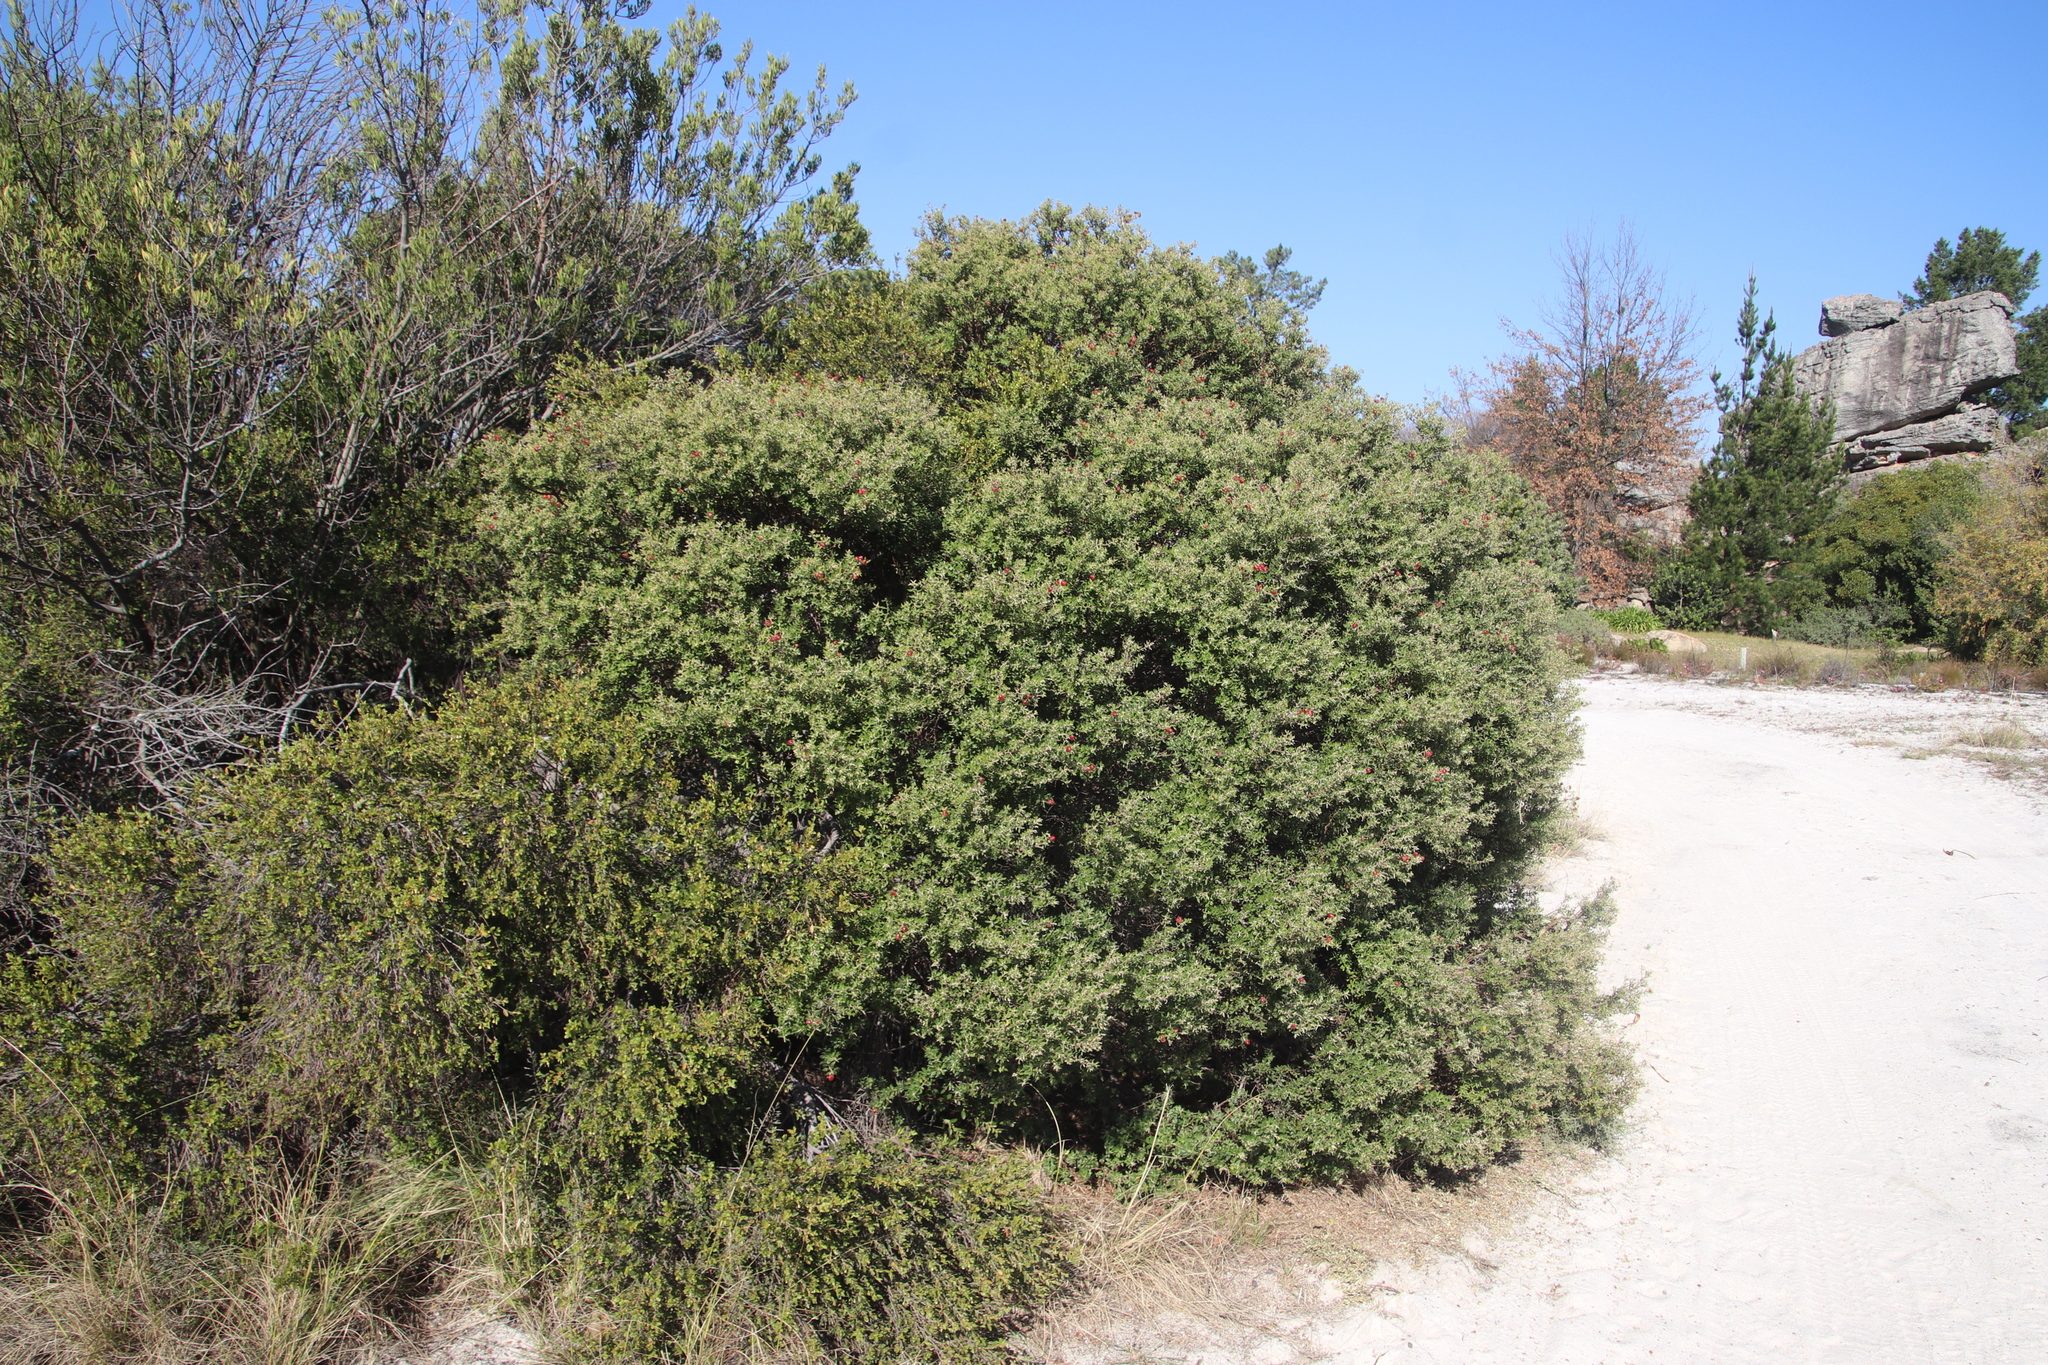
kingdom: Plantae
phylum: Tracheophyta
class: Magnoliopsida
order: Rosales
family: Rhamnaceae
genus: Phylica
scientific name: Phylica oleifolia
